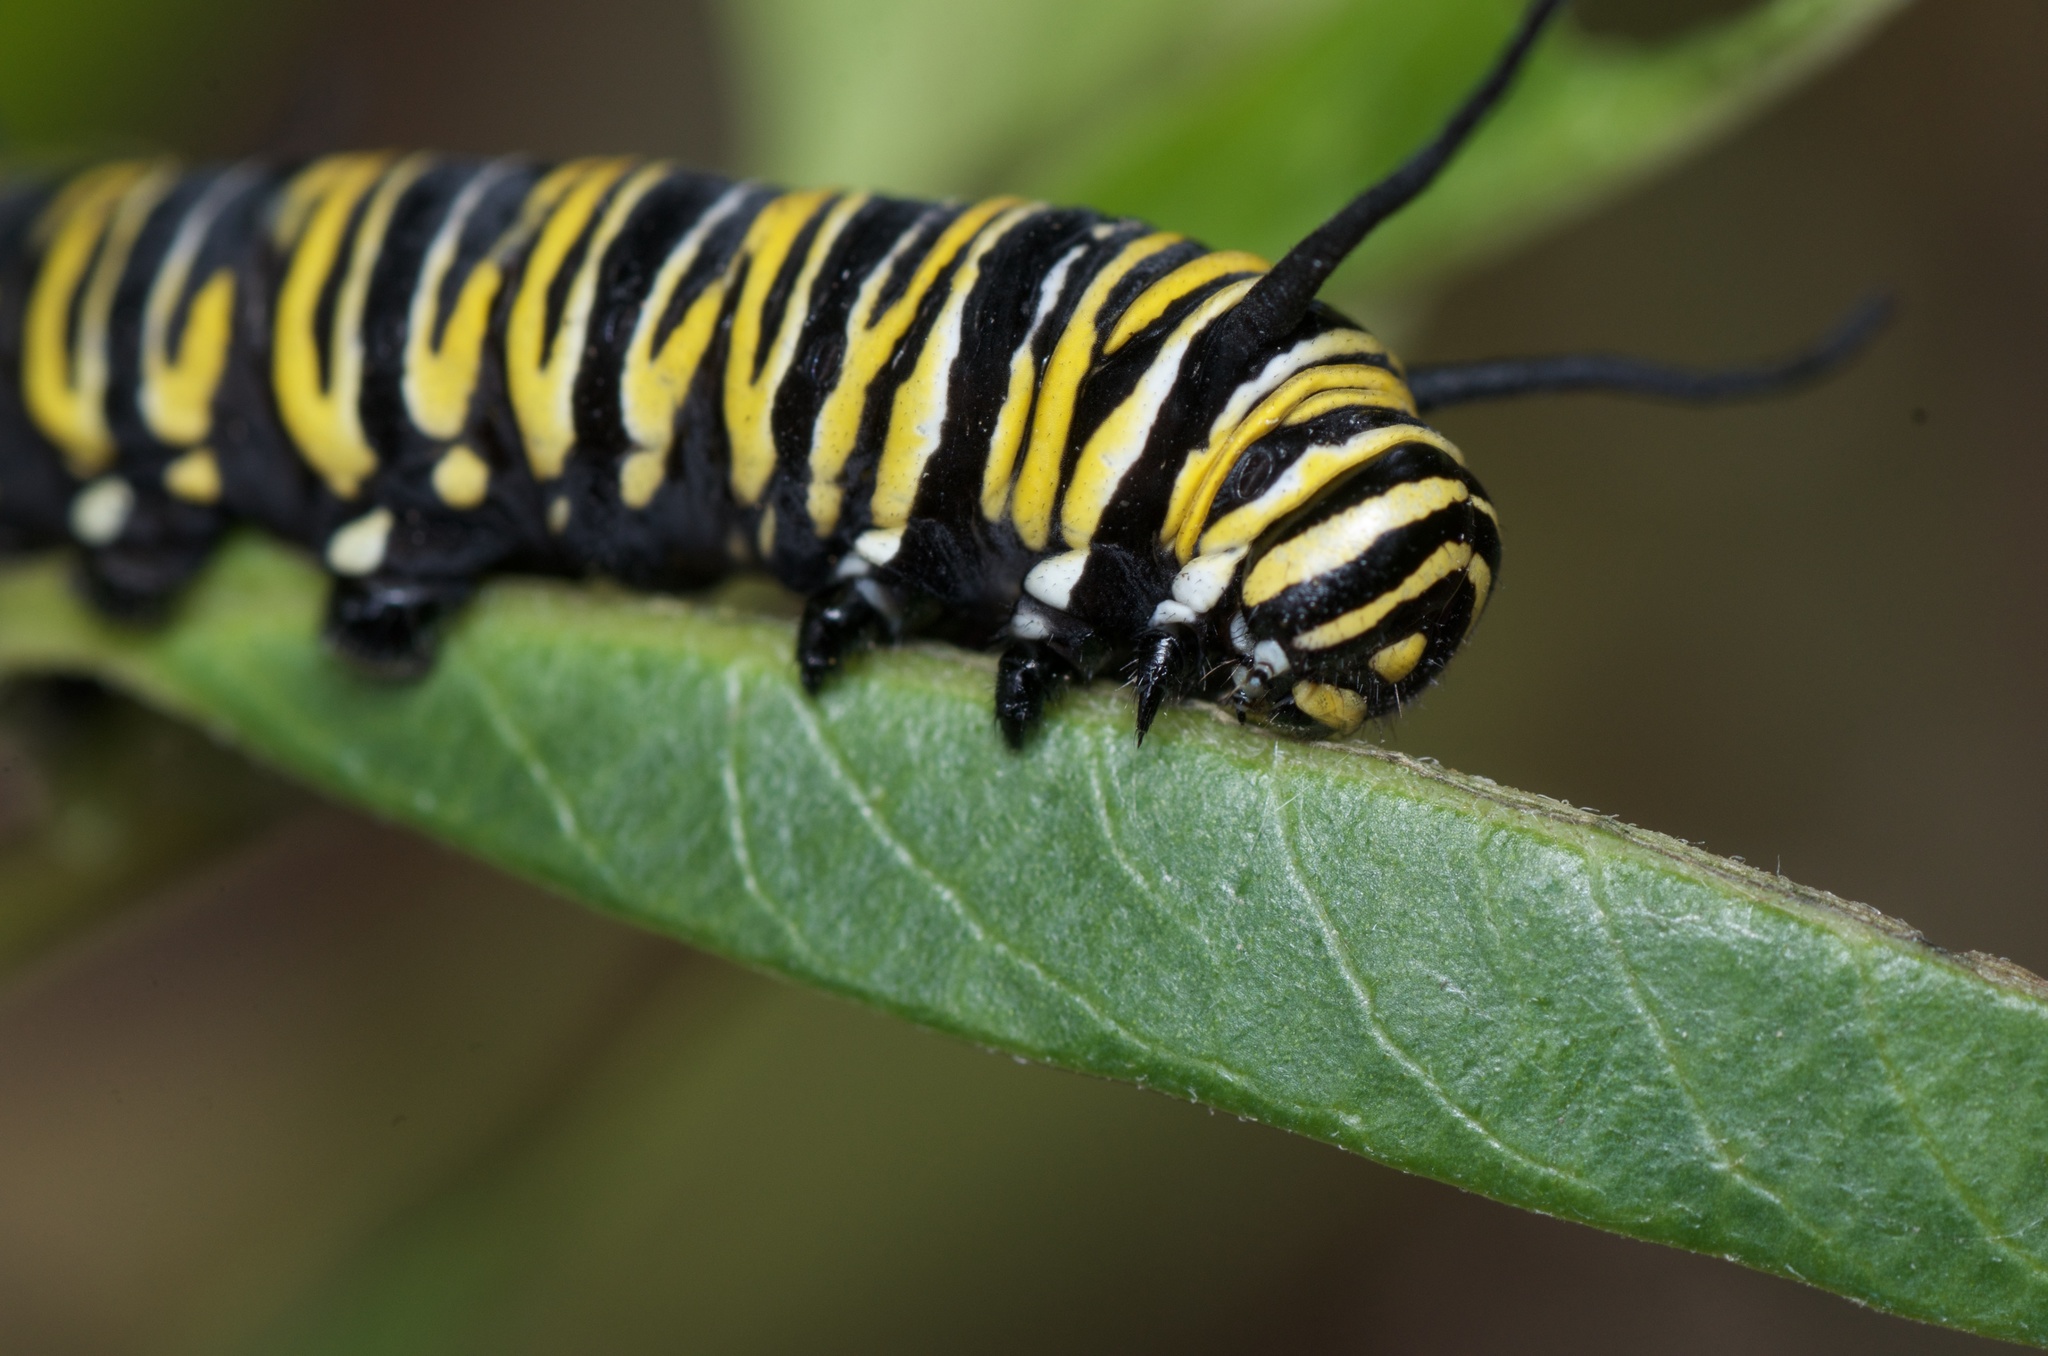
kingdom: Animalia
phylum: Arthropoda
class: Insecta
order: Lepidoptera
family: Nymphalidae
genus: Danaus
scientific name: Danaus plexippus
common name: Monarch
